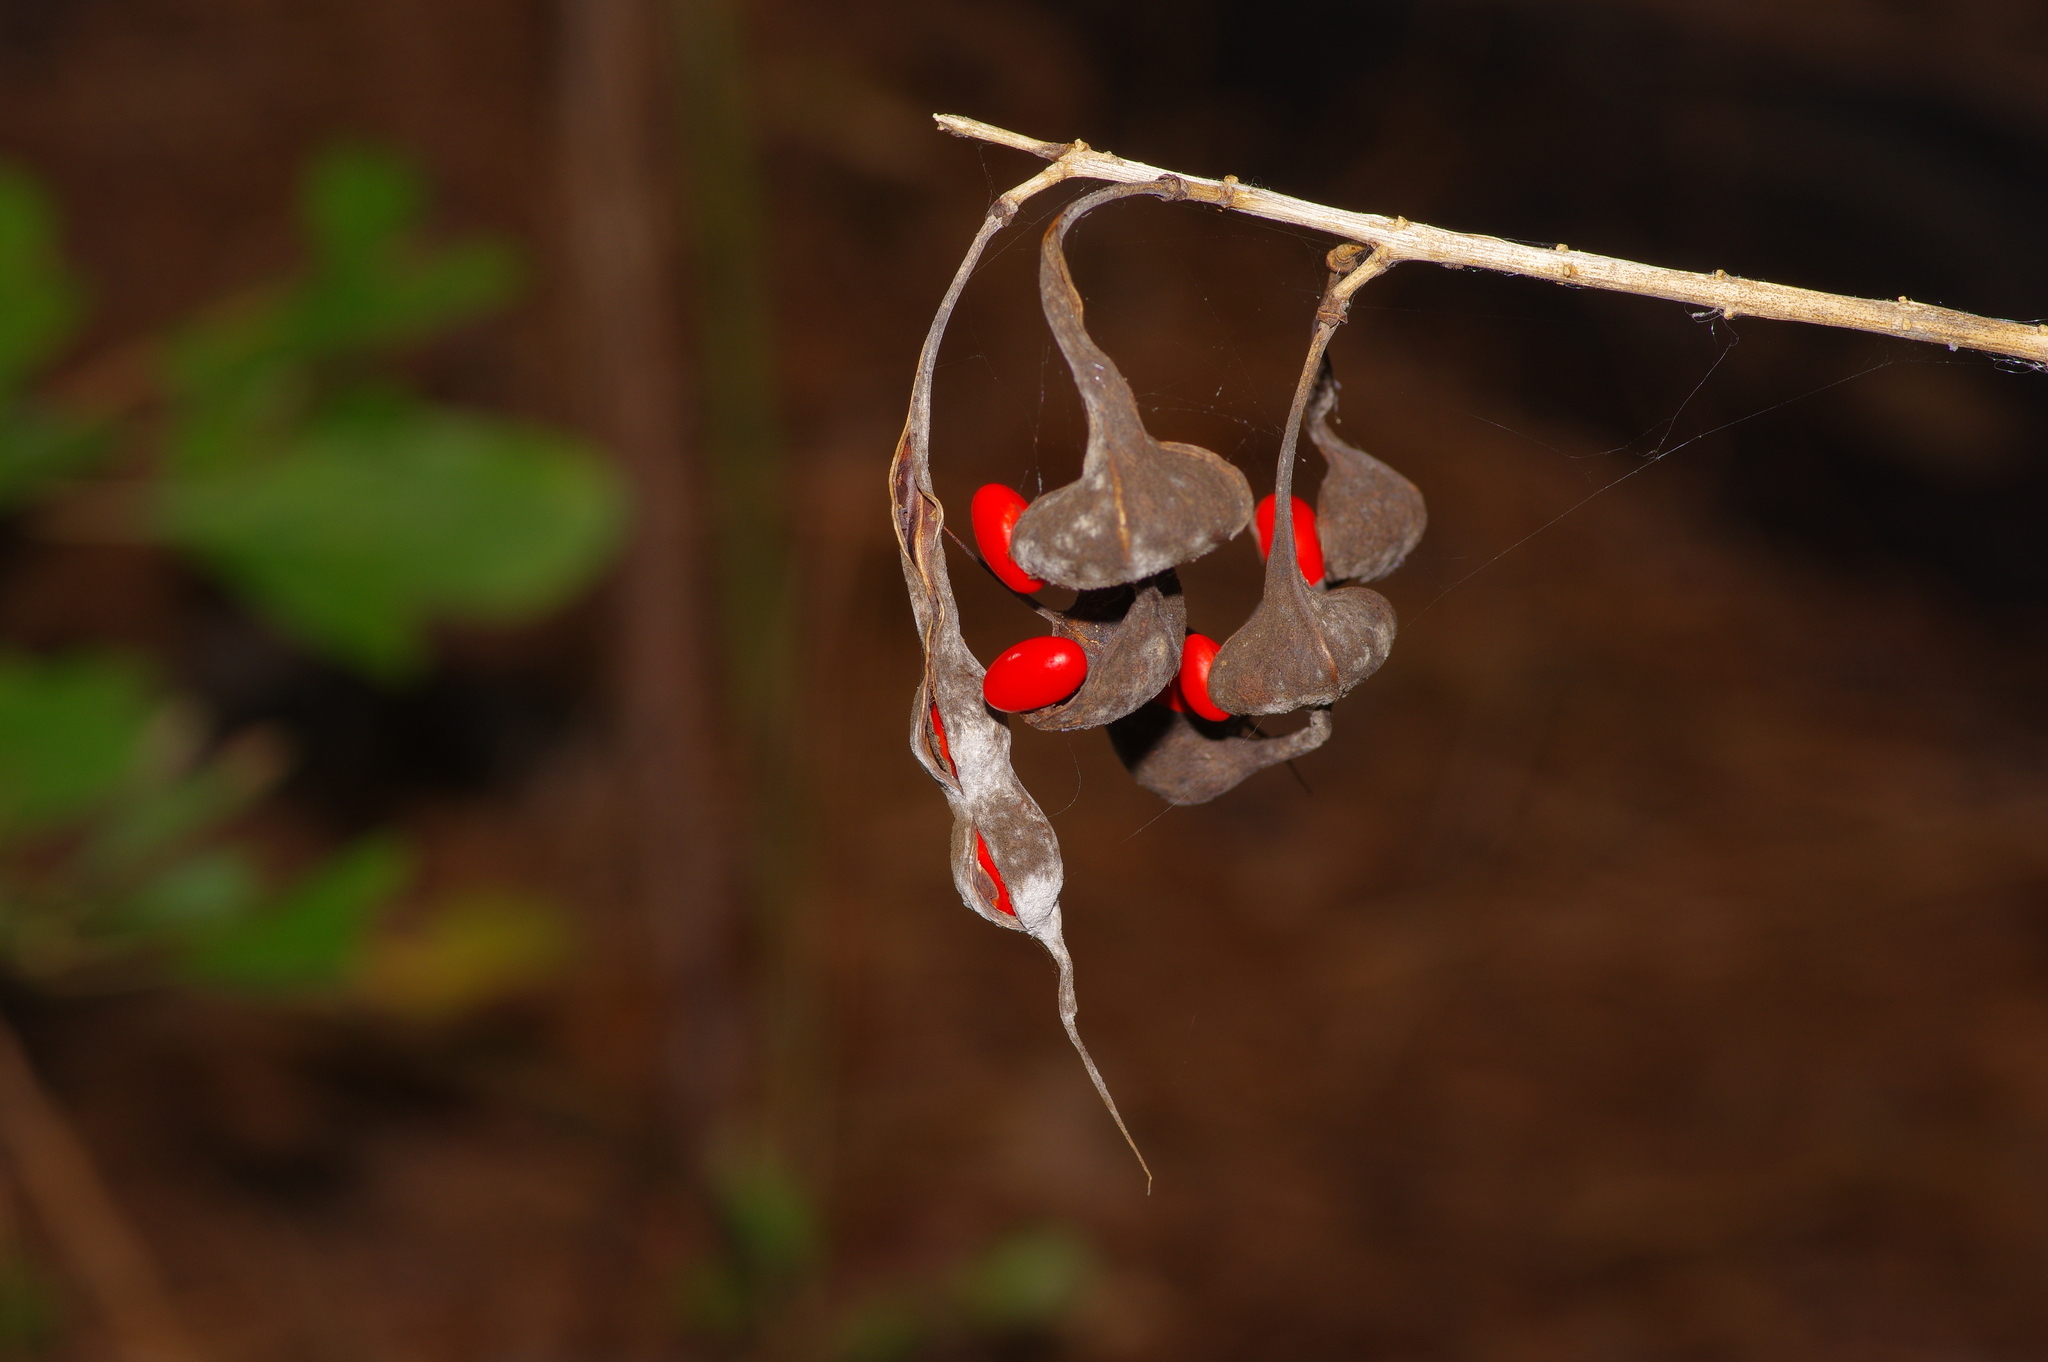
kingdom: Plantae
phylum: Tracheophyta
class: Magnoliopsida
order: Fabales
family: Fabaceae
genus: Erythrina
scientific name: Erythrina herbacea
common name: Coral-bean
